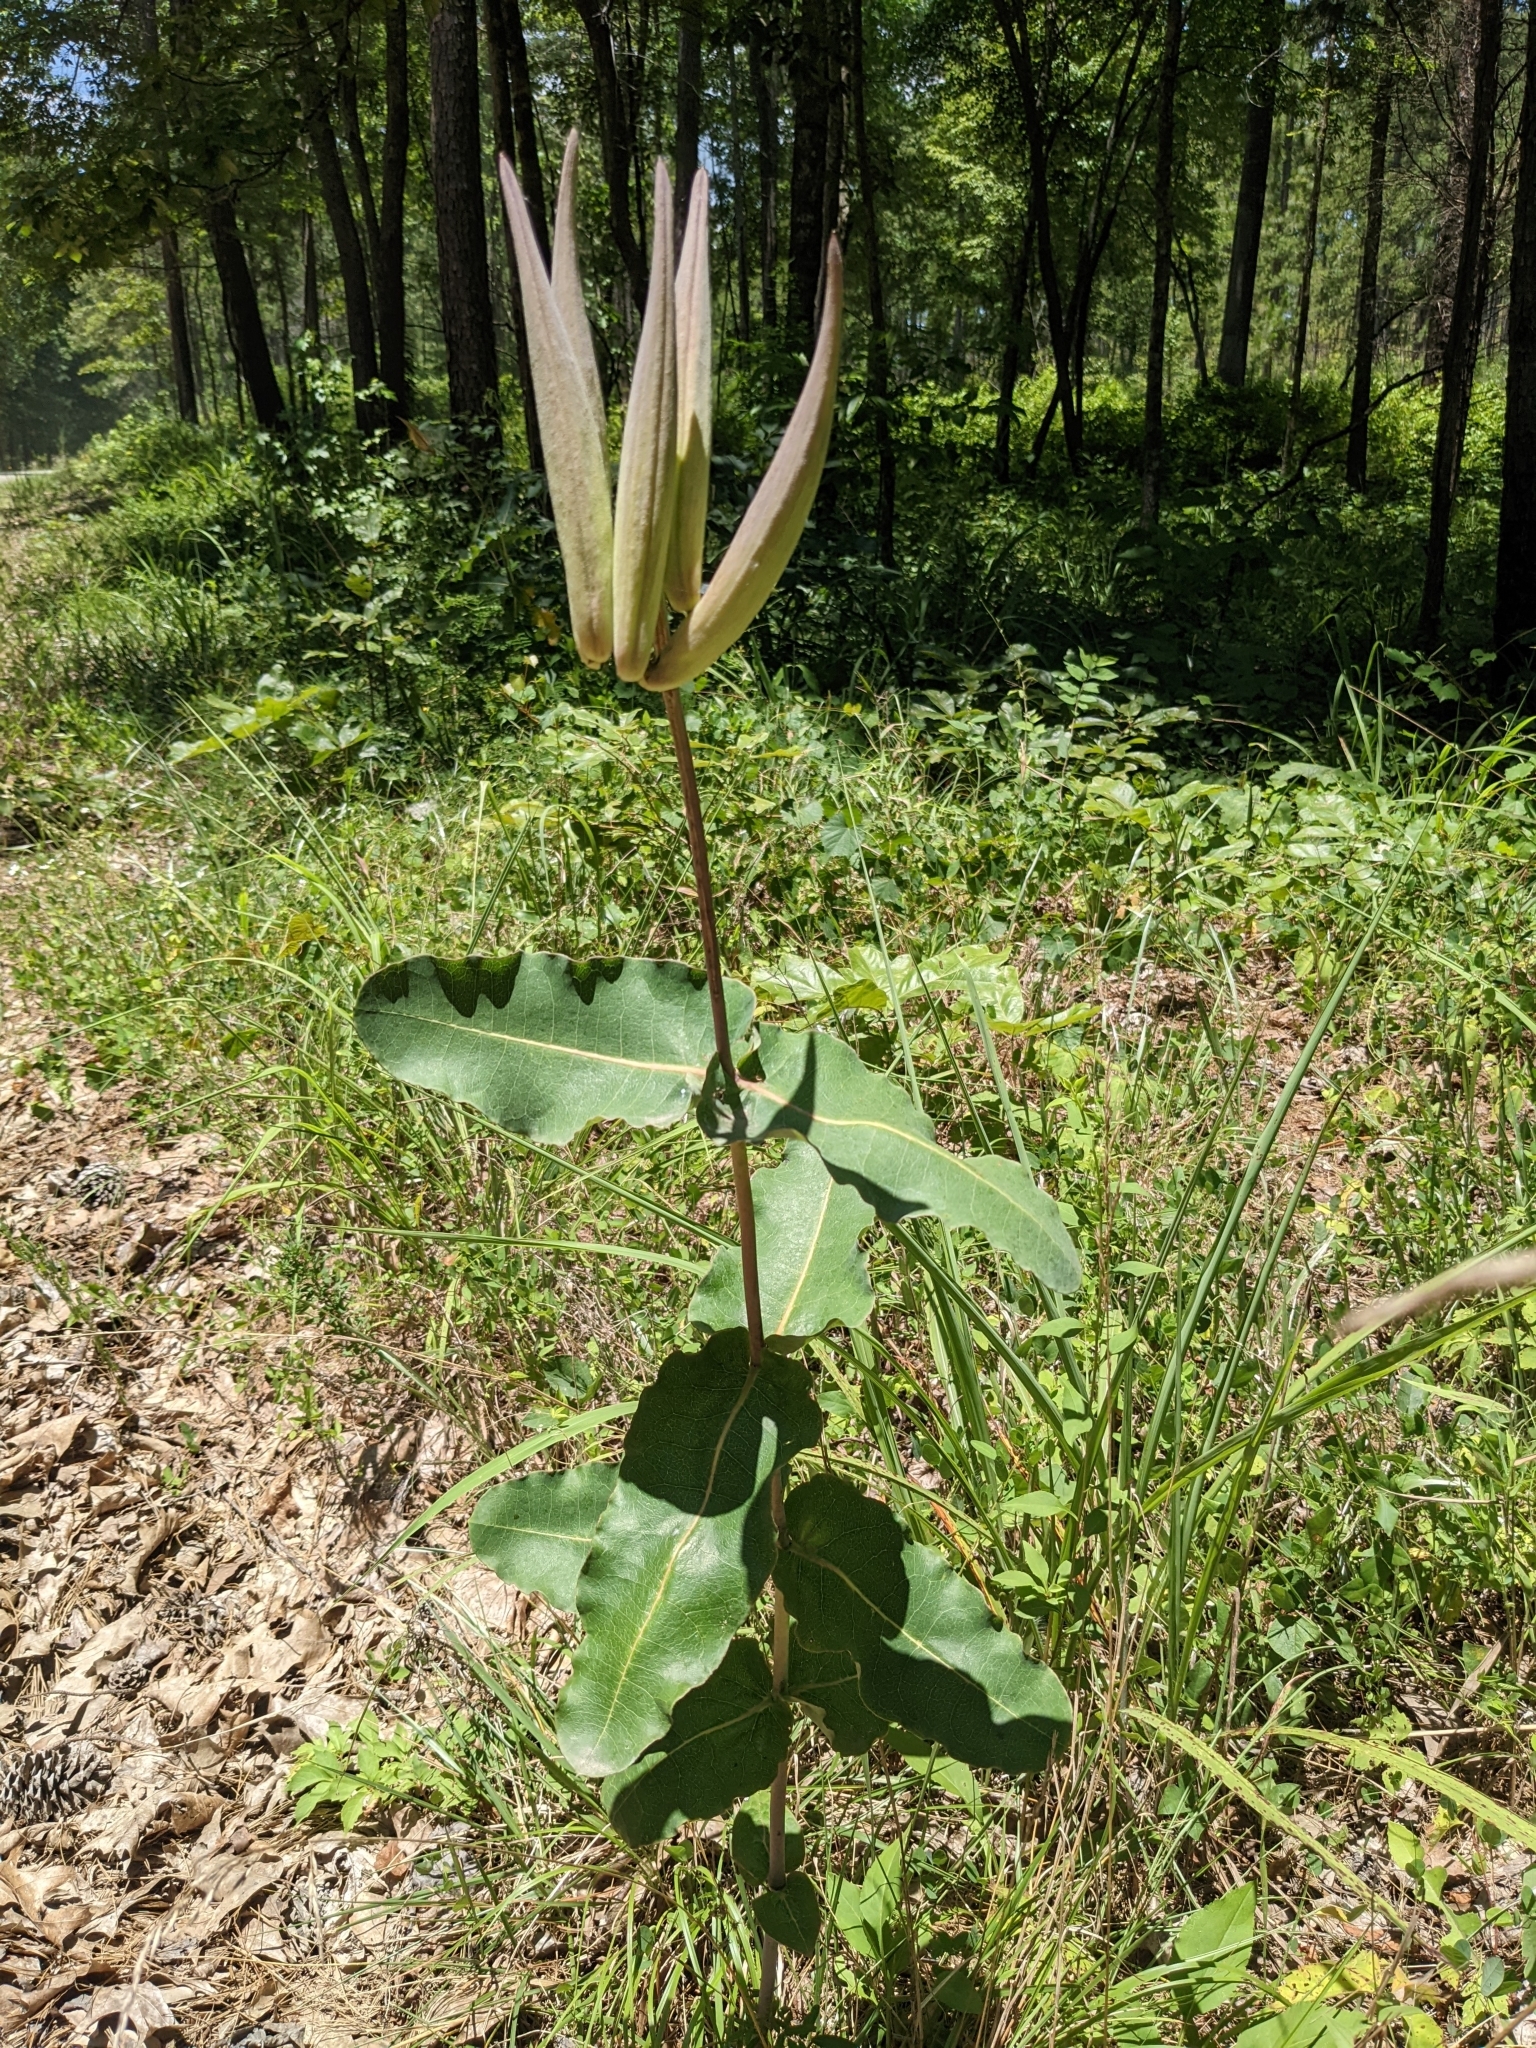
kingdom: Plantae
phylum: Tracheophyta
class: Magnoliopsida
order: Gentianales
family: Apocynaceae
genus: Asclepias
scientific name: Asclepias amplexicaulis
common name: Blunt-leaf milkweed
